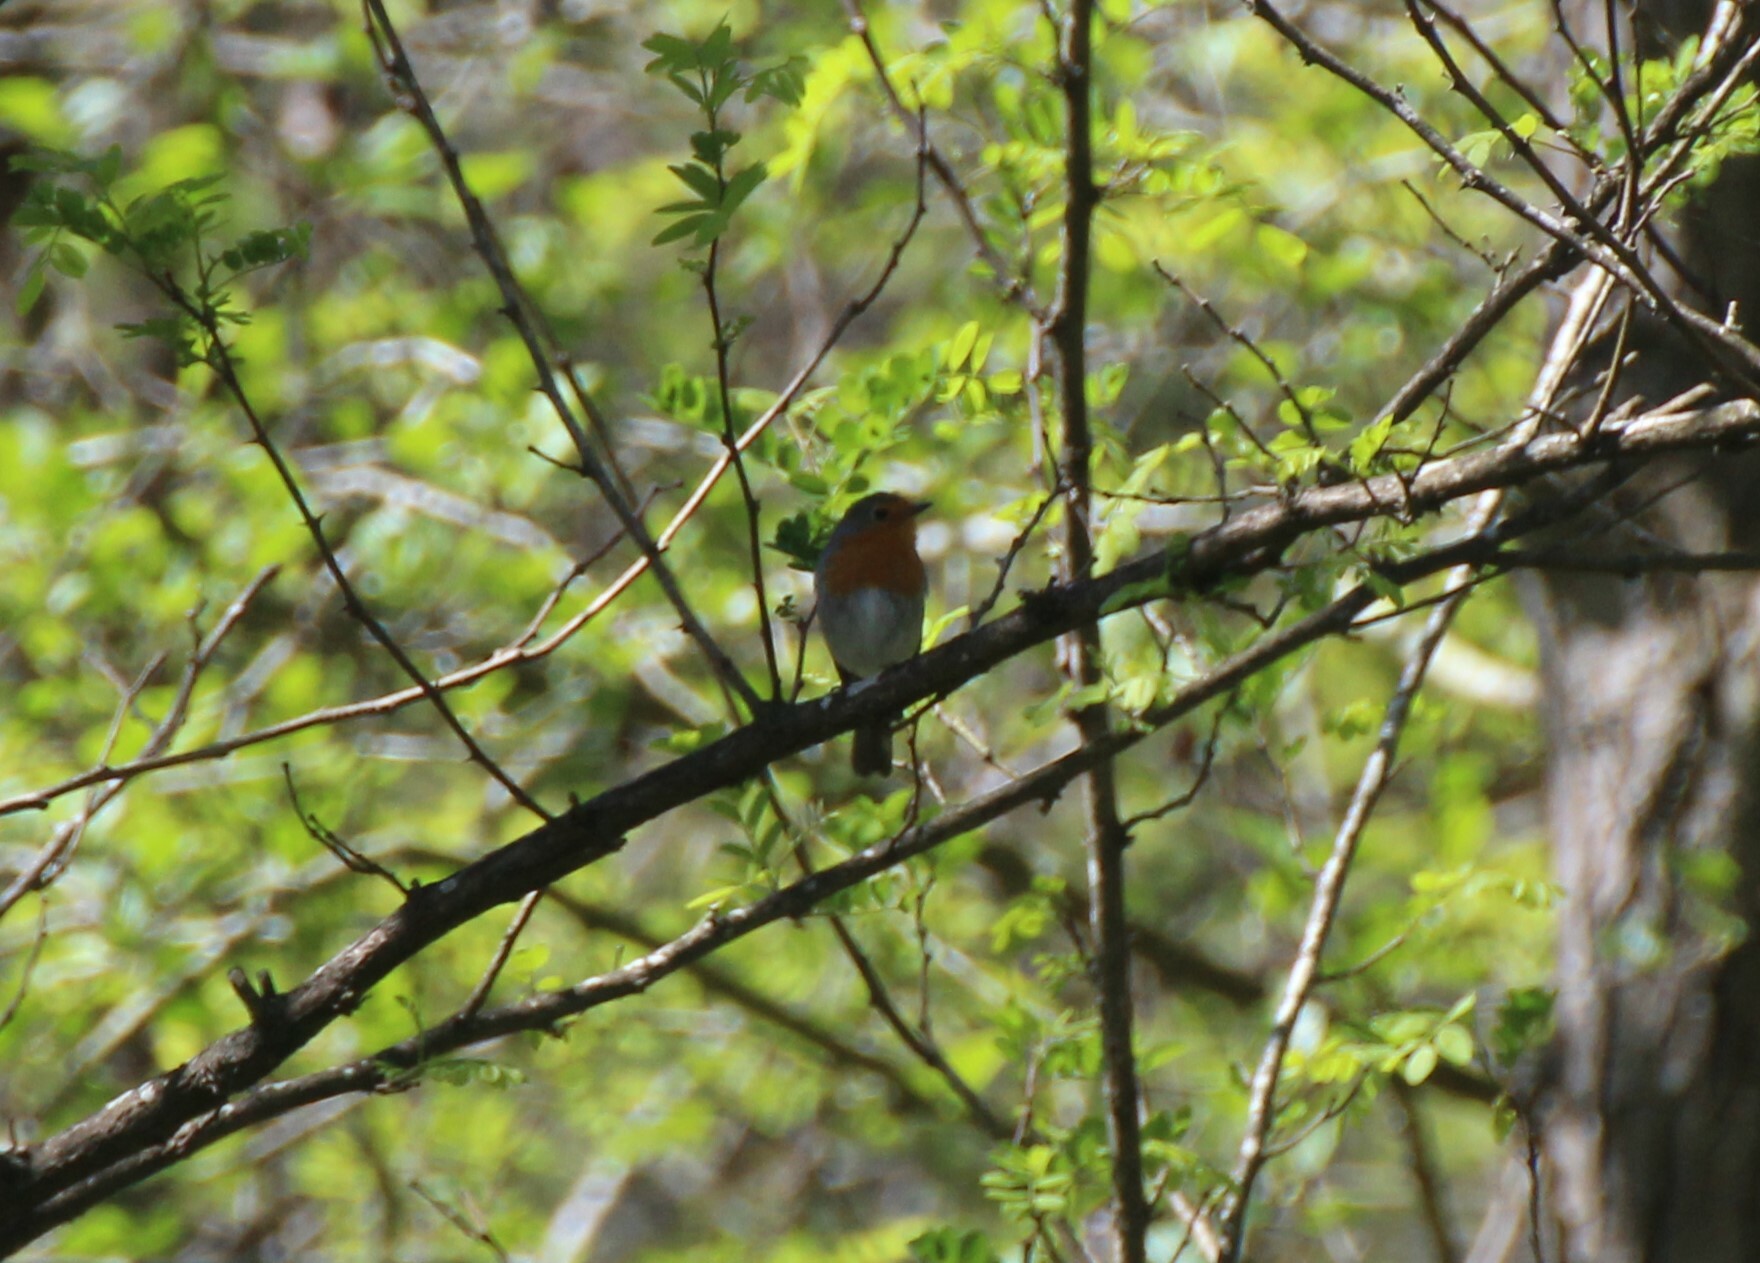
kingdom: Animalia
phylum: Chordata
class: Aves
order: Passeriformes
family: Muscicapidae
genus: Erithacus
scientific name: Erithacus rubecula
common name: European robin
